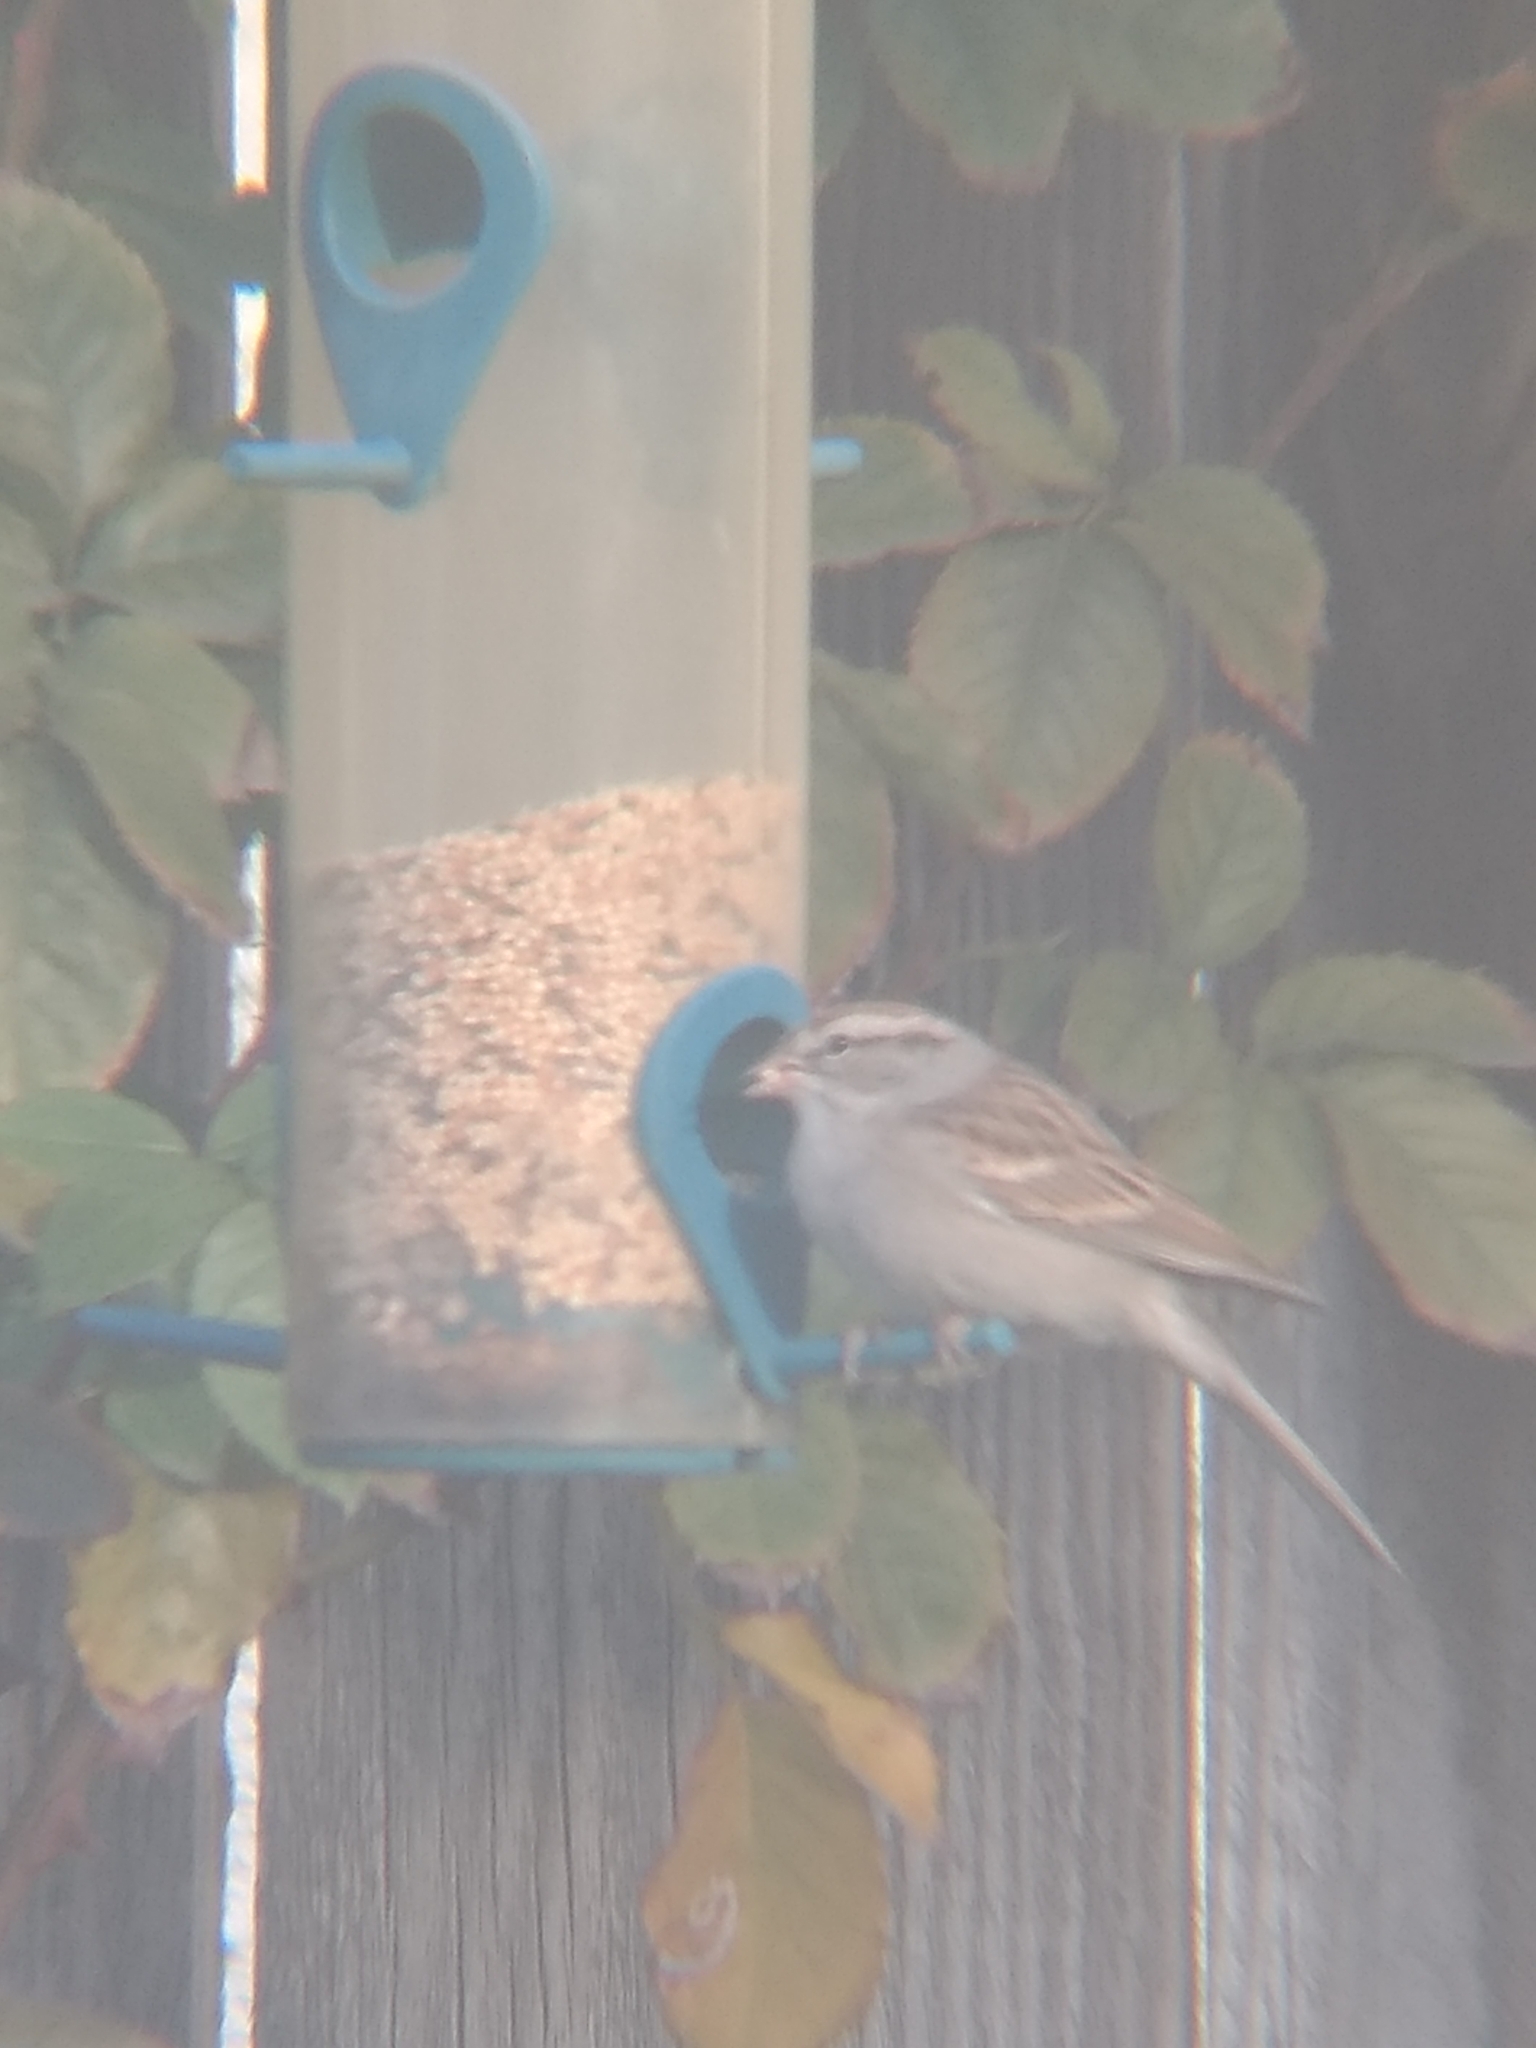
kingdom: Animalia
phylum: Chordata
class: Aves
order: Passeriformes
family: Passerellidae
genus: Spizella
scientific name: Spizella passerina
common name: Chipping sparrow
